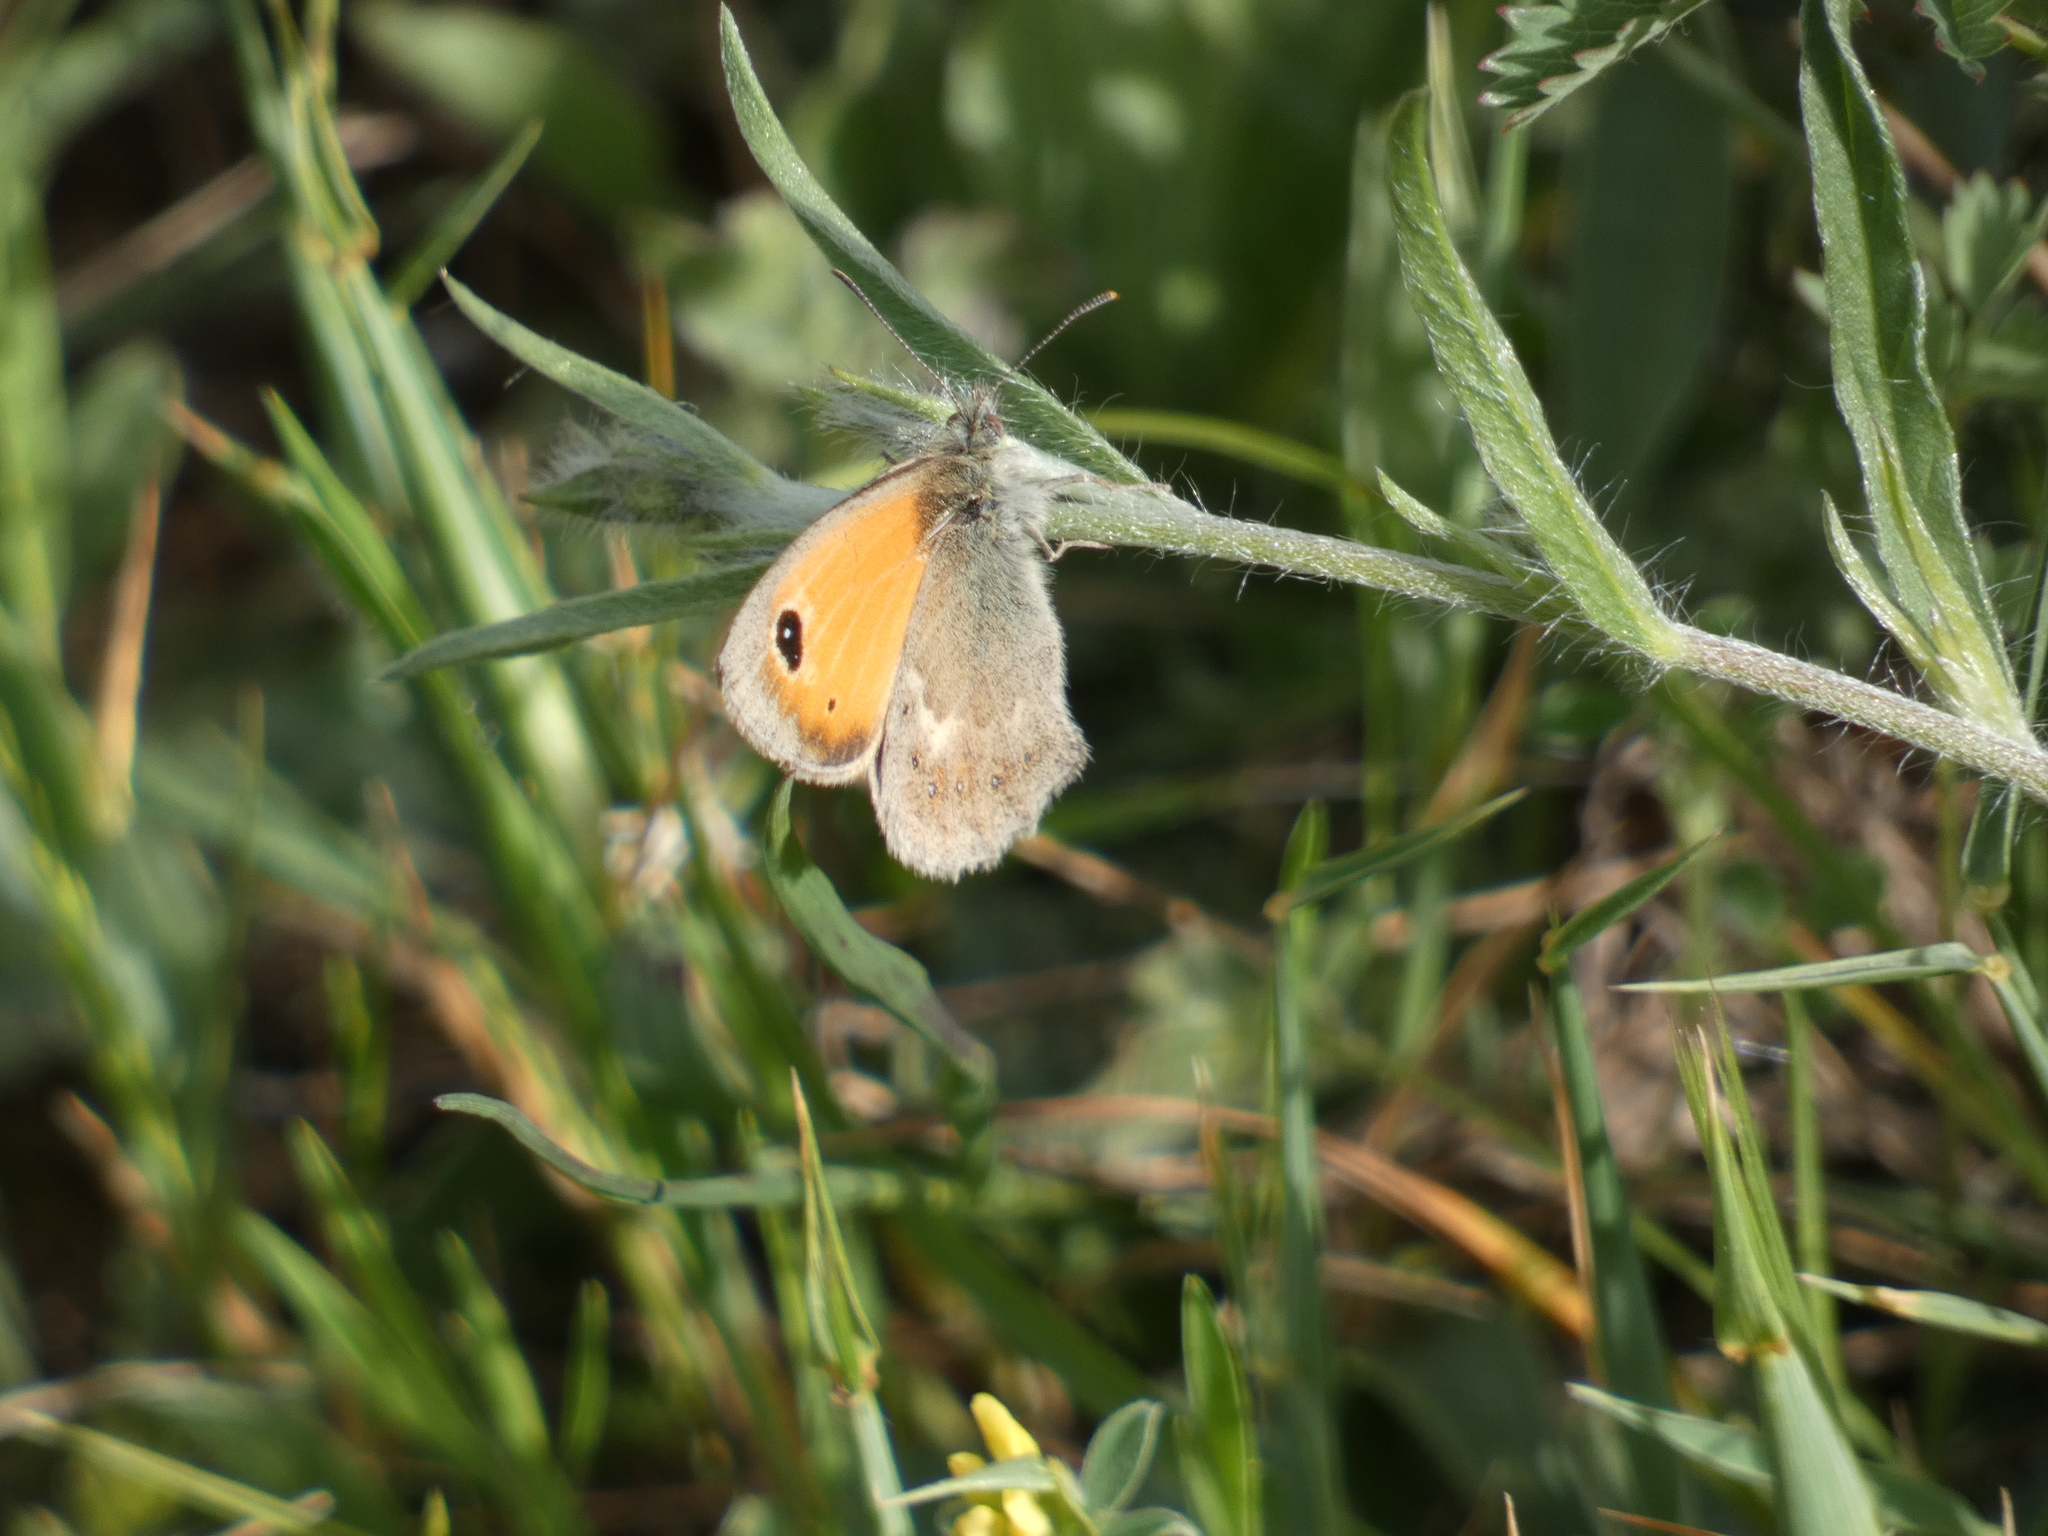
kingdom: Animalia
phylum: Arthropoda
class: Insecta
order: Lepidoptera
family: Nymphalidae
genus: Coenonympha
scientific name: Coenonympha pamphilus
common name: Small heath
